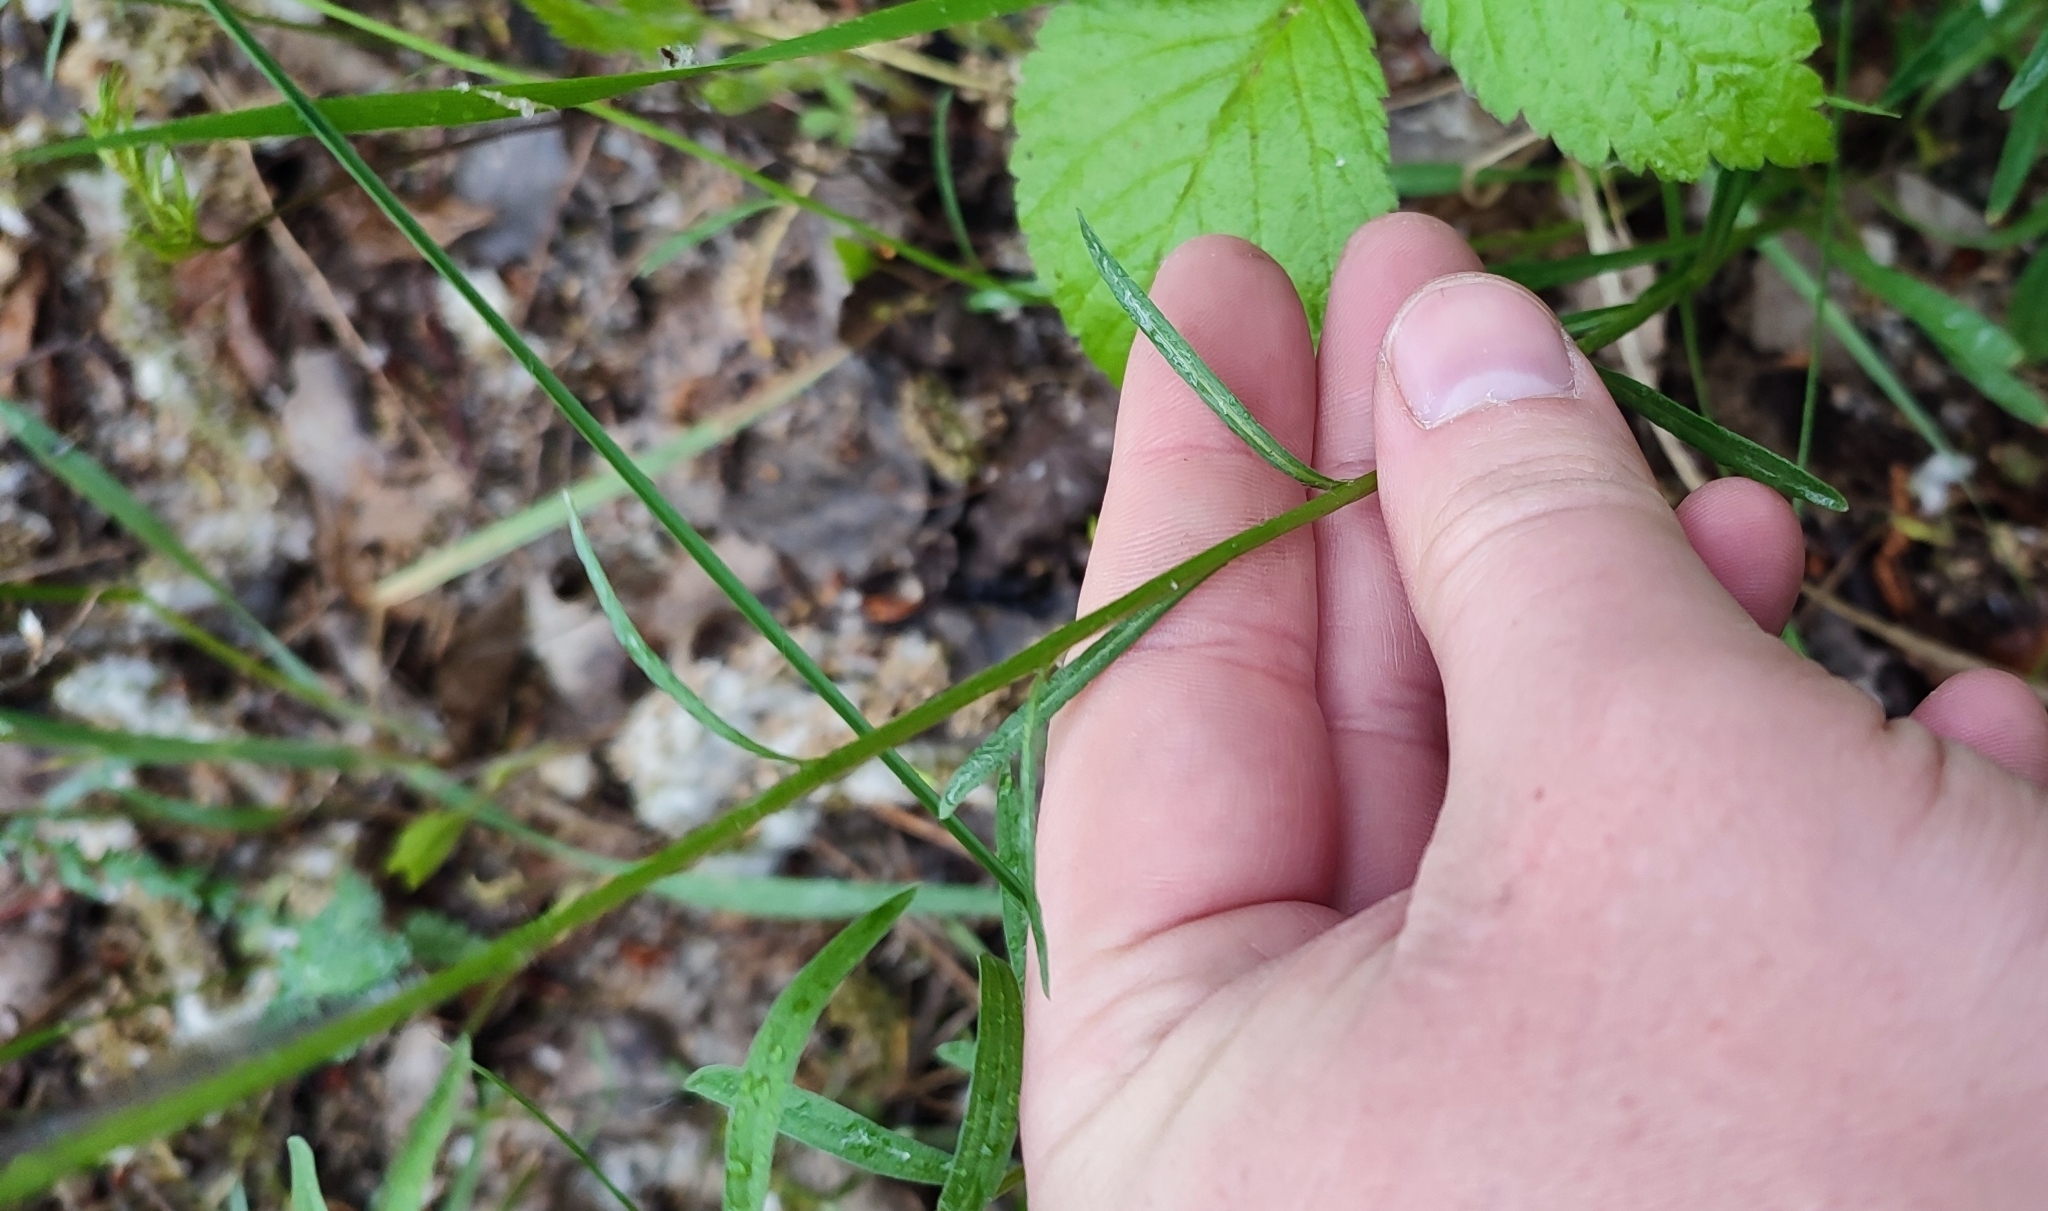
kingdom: Plantae
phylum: Tracheophyta
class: Magnoliopsida
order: Asterales
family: Campanulaceae
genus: Campanula
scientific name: Campanula stevenii
